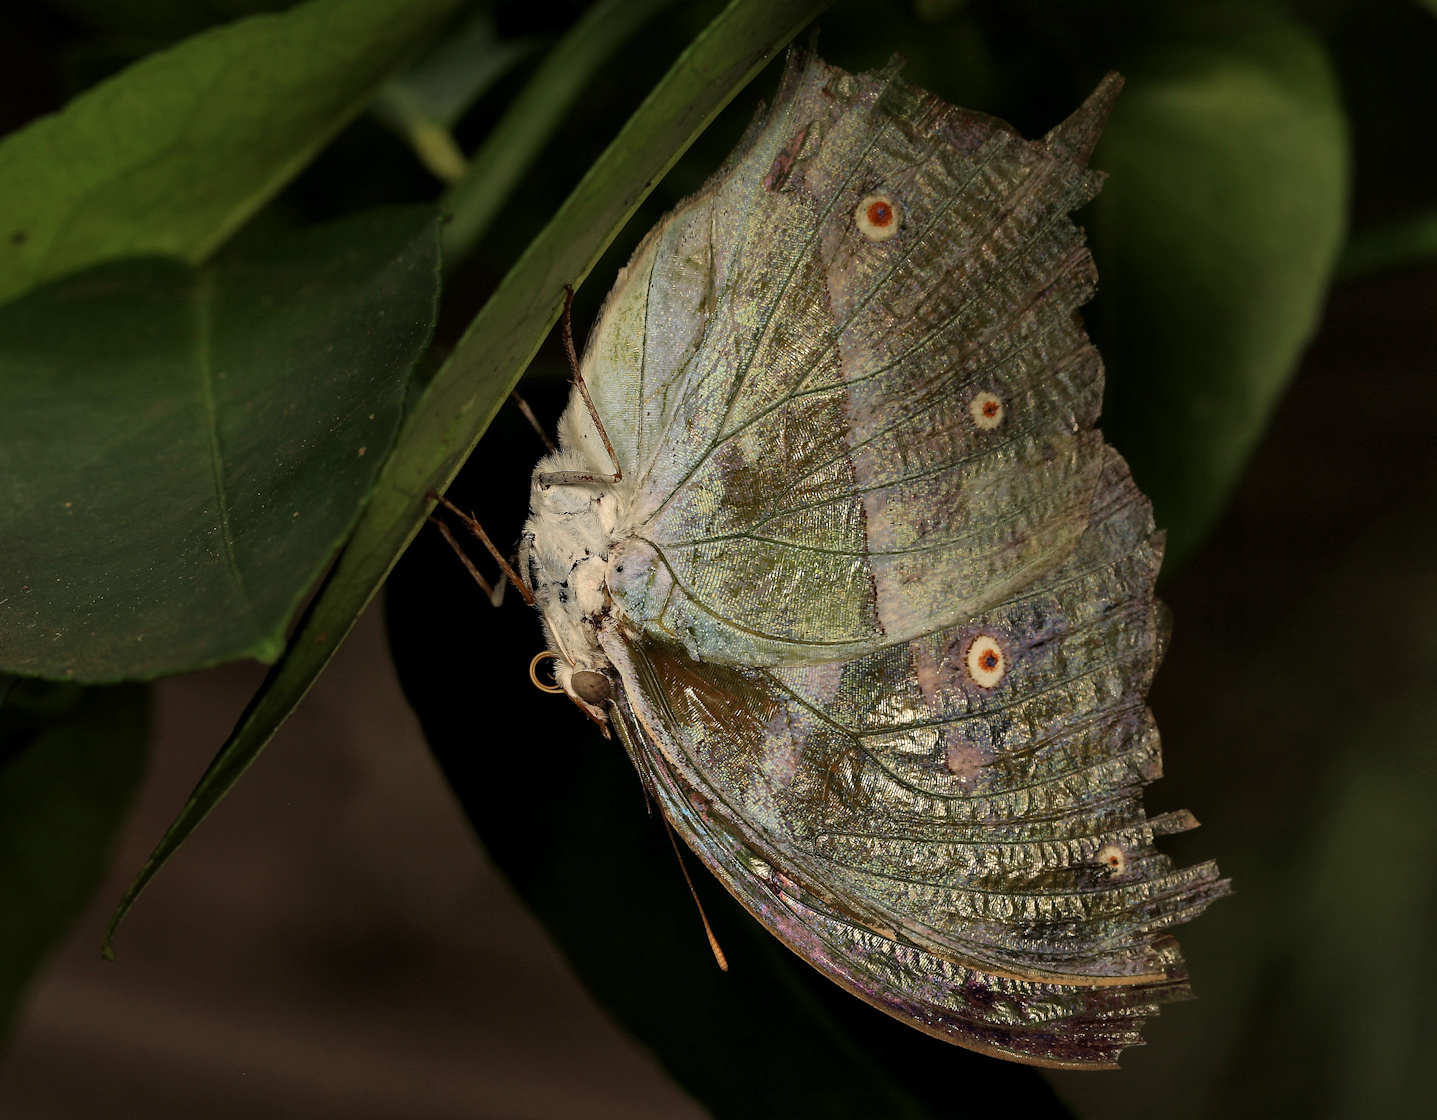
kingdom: Animalia
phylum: Arthropoda
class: Insecta
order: Lepidoptera
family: Nymphalidae
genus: Salamis
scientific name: Salamis Protogoniomorpha parhassus
